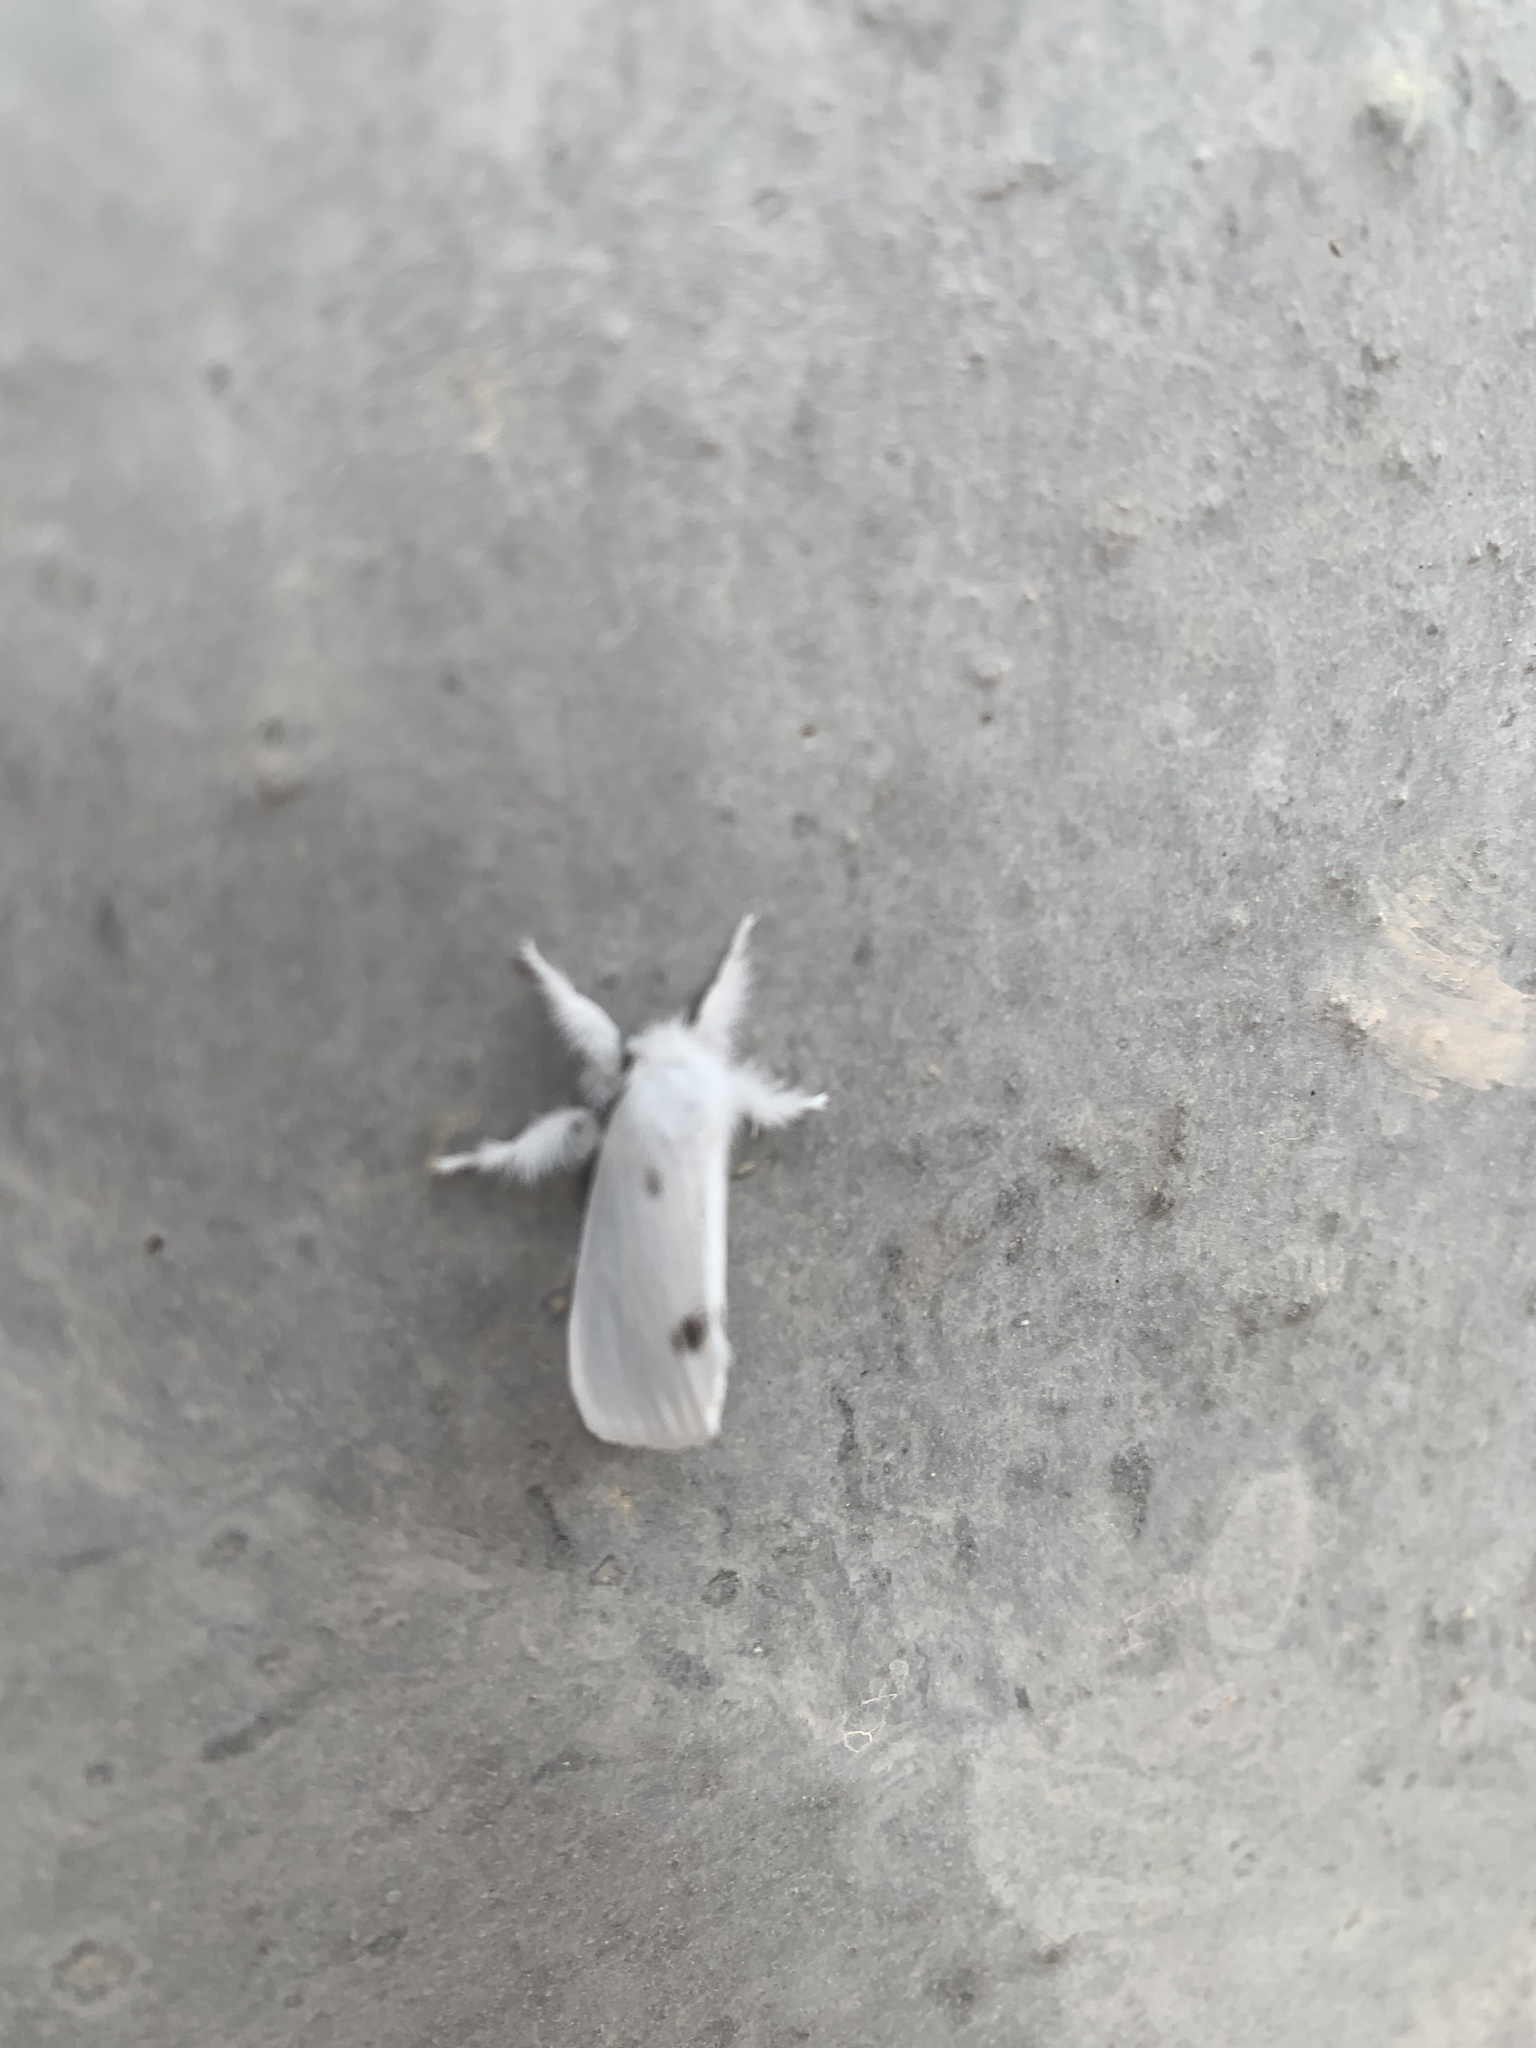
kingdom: Animalia
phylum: Arthropoda
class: Insecta
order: Lepidoptera
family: Erebidae
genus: Sphrageidus
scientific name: Sphrageidus similis
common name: Yellow-tail
